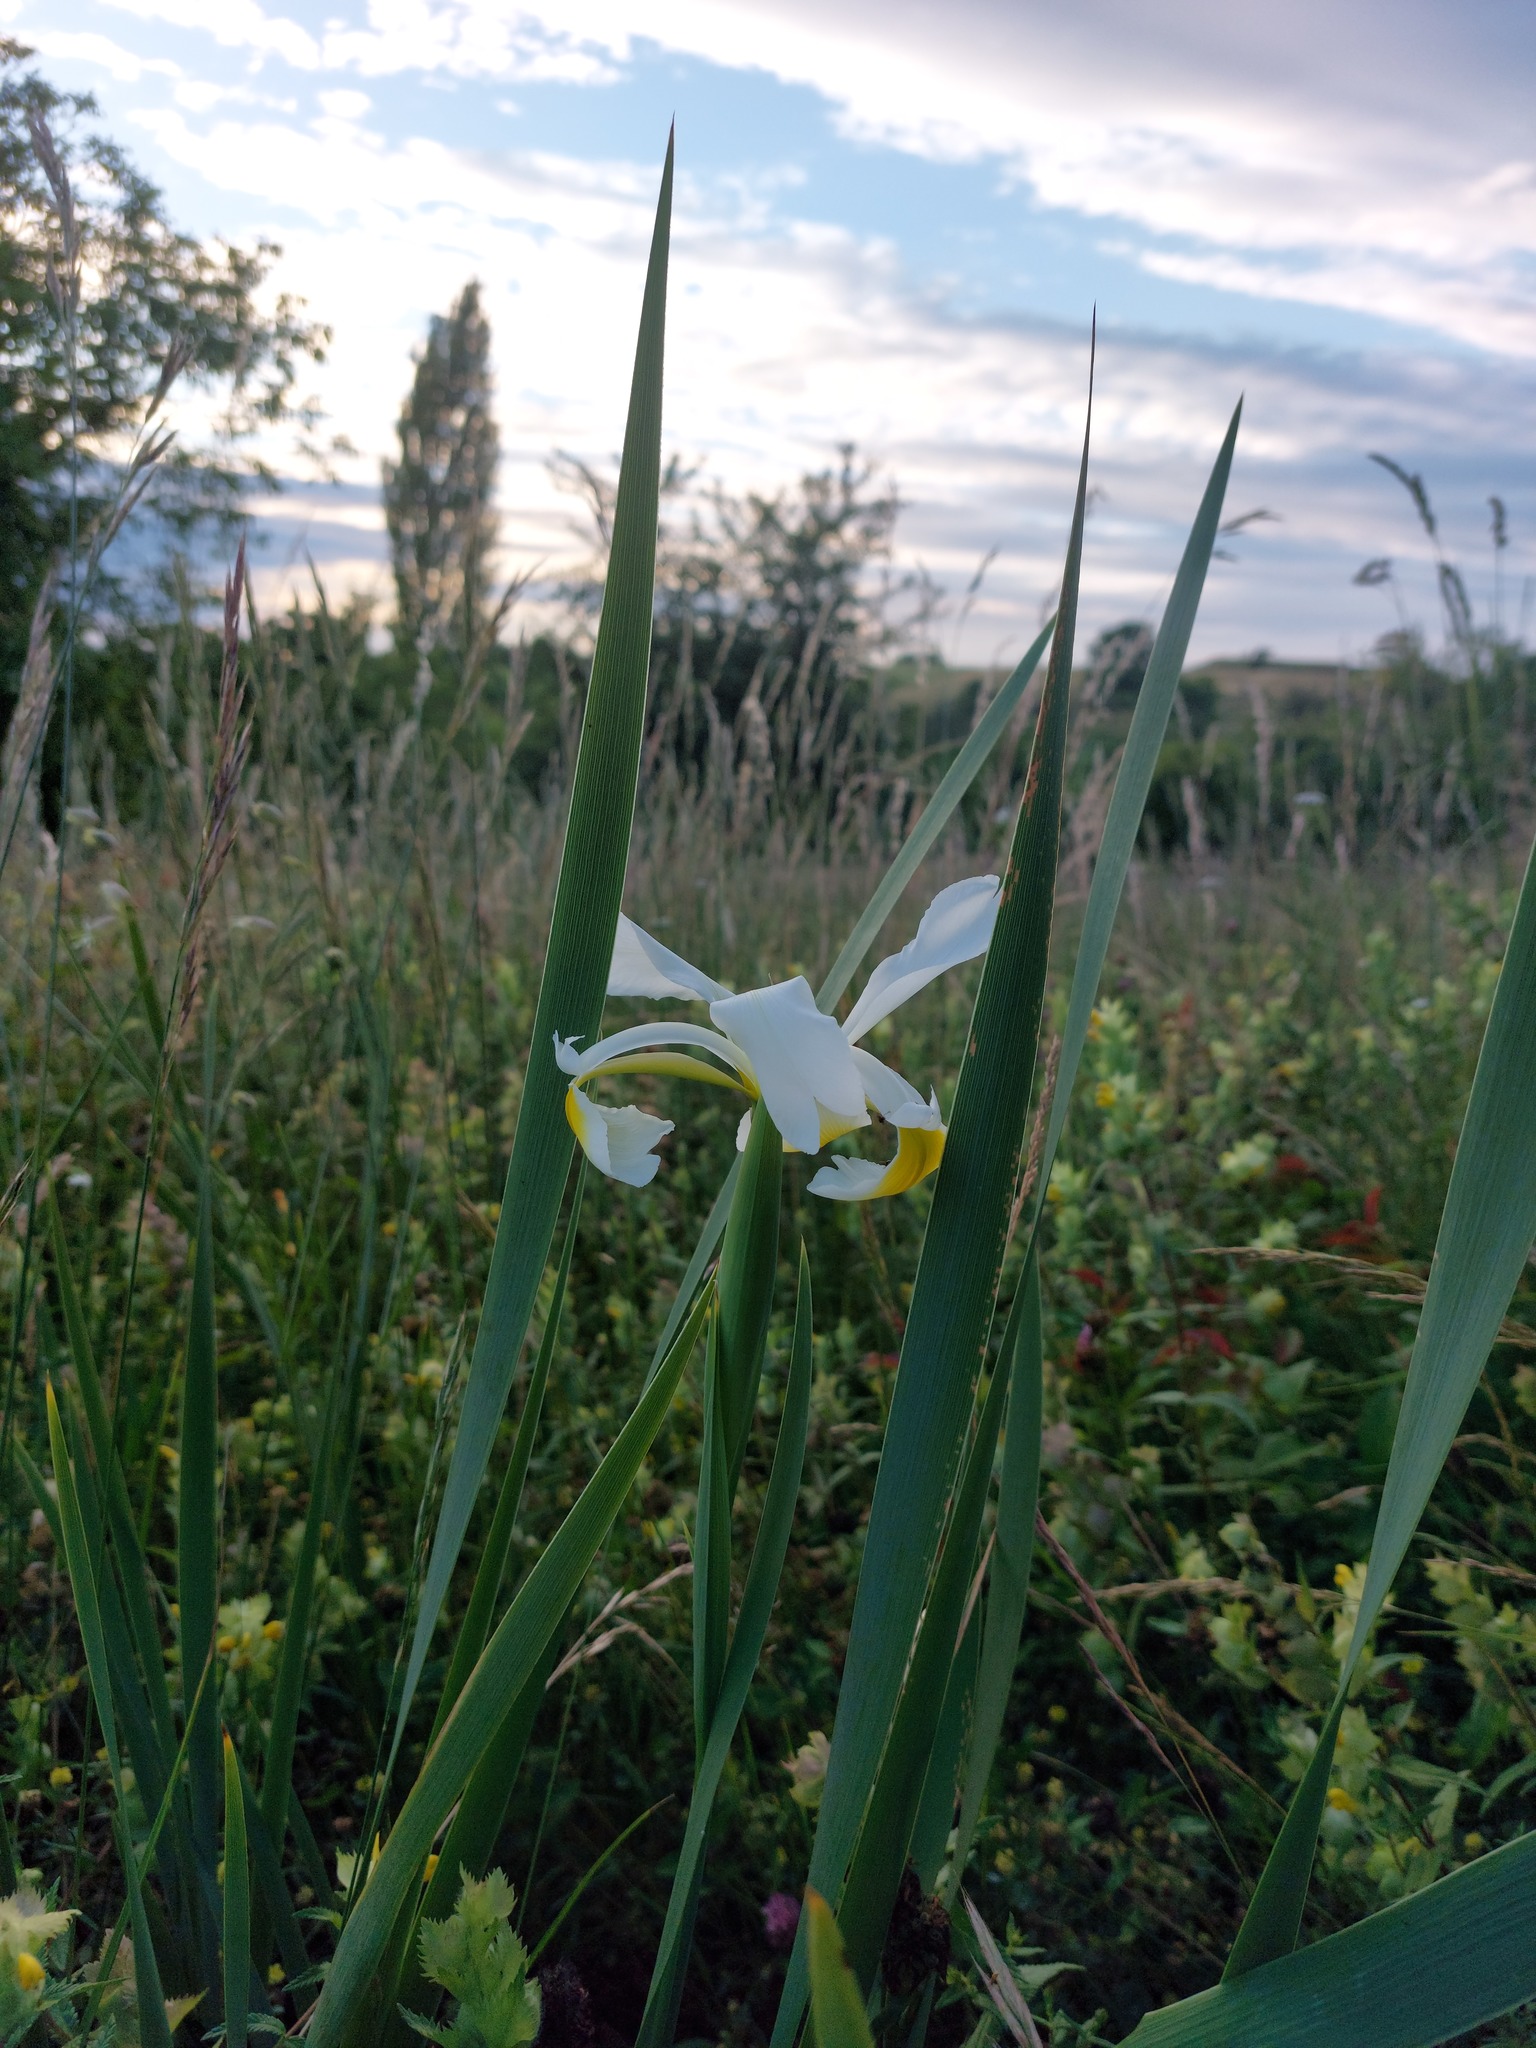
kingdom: Plantae
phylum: Tracheophyta
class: Liliopsida
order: Asparagales
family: Iridaceae
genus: Iris
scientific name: Iris orientalis
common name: Turkish iris
